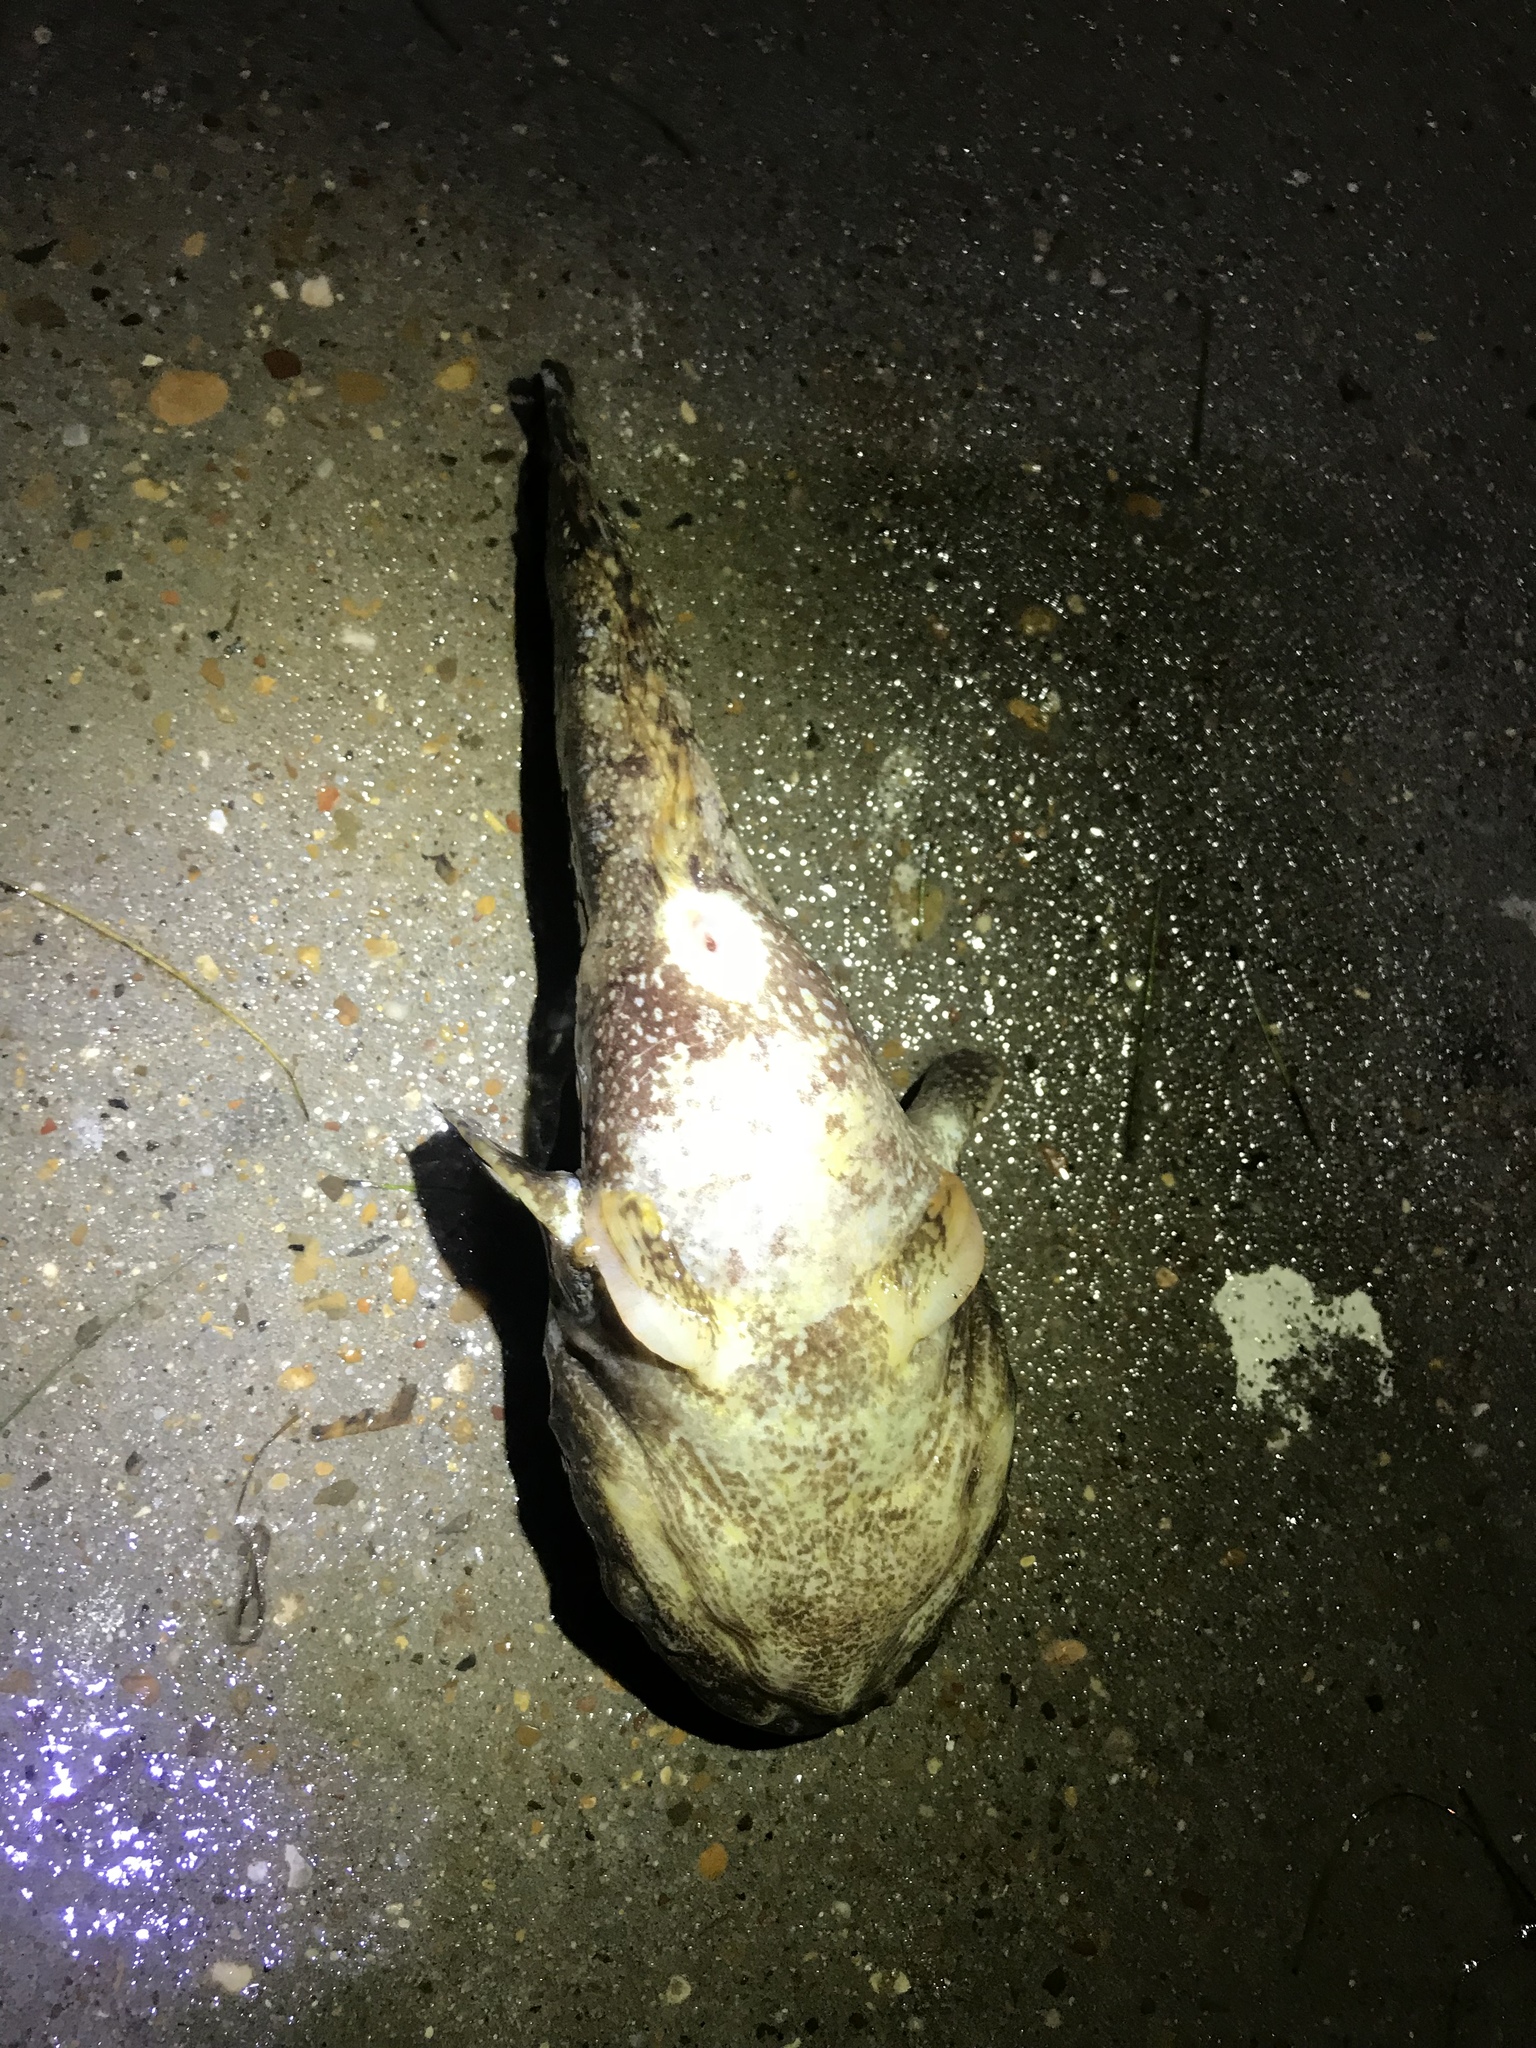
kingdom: Animalia
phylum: Chordata
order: Batrachoidiformes
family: Batrachoididae
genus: Opsanus
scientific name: Opsanus beta
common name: Gulf toadfish
